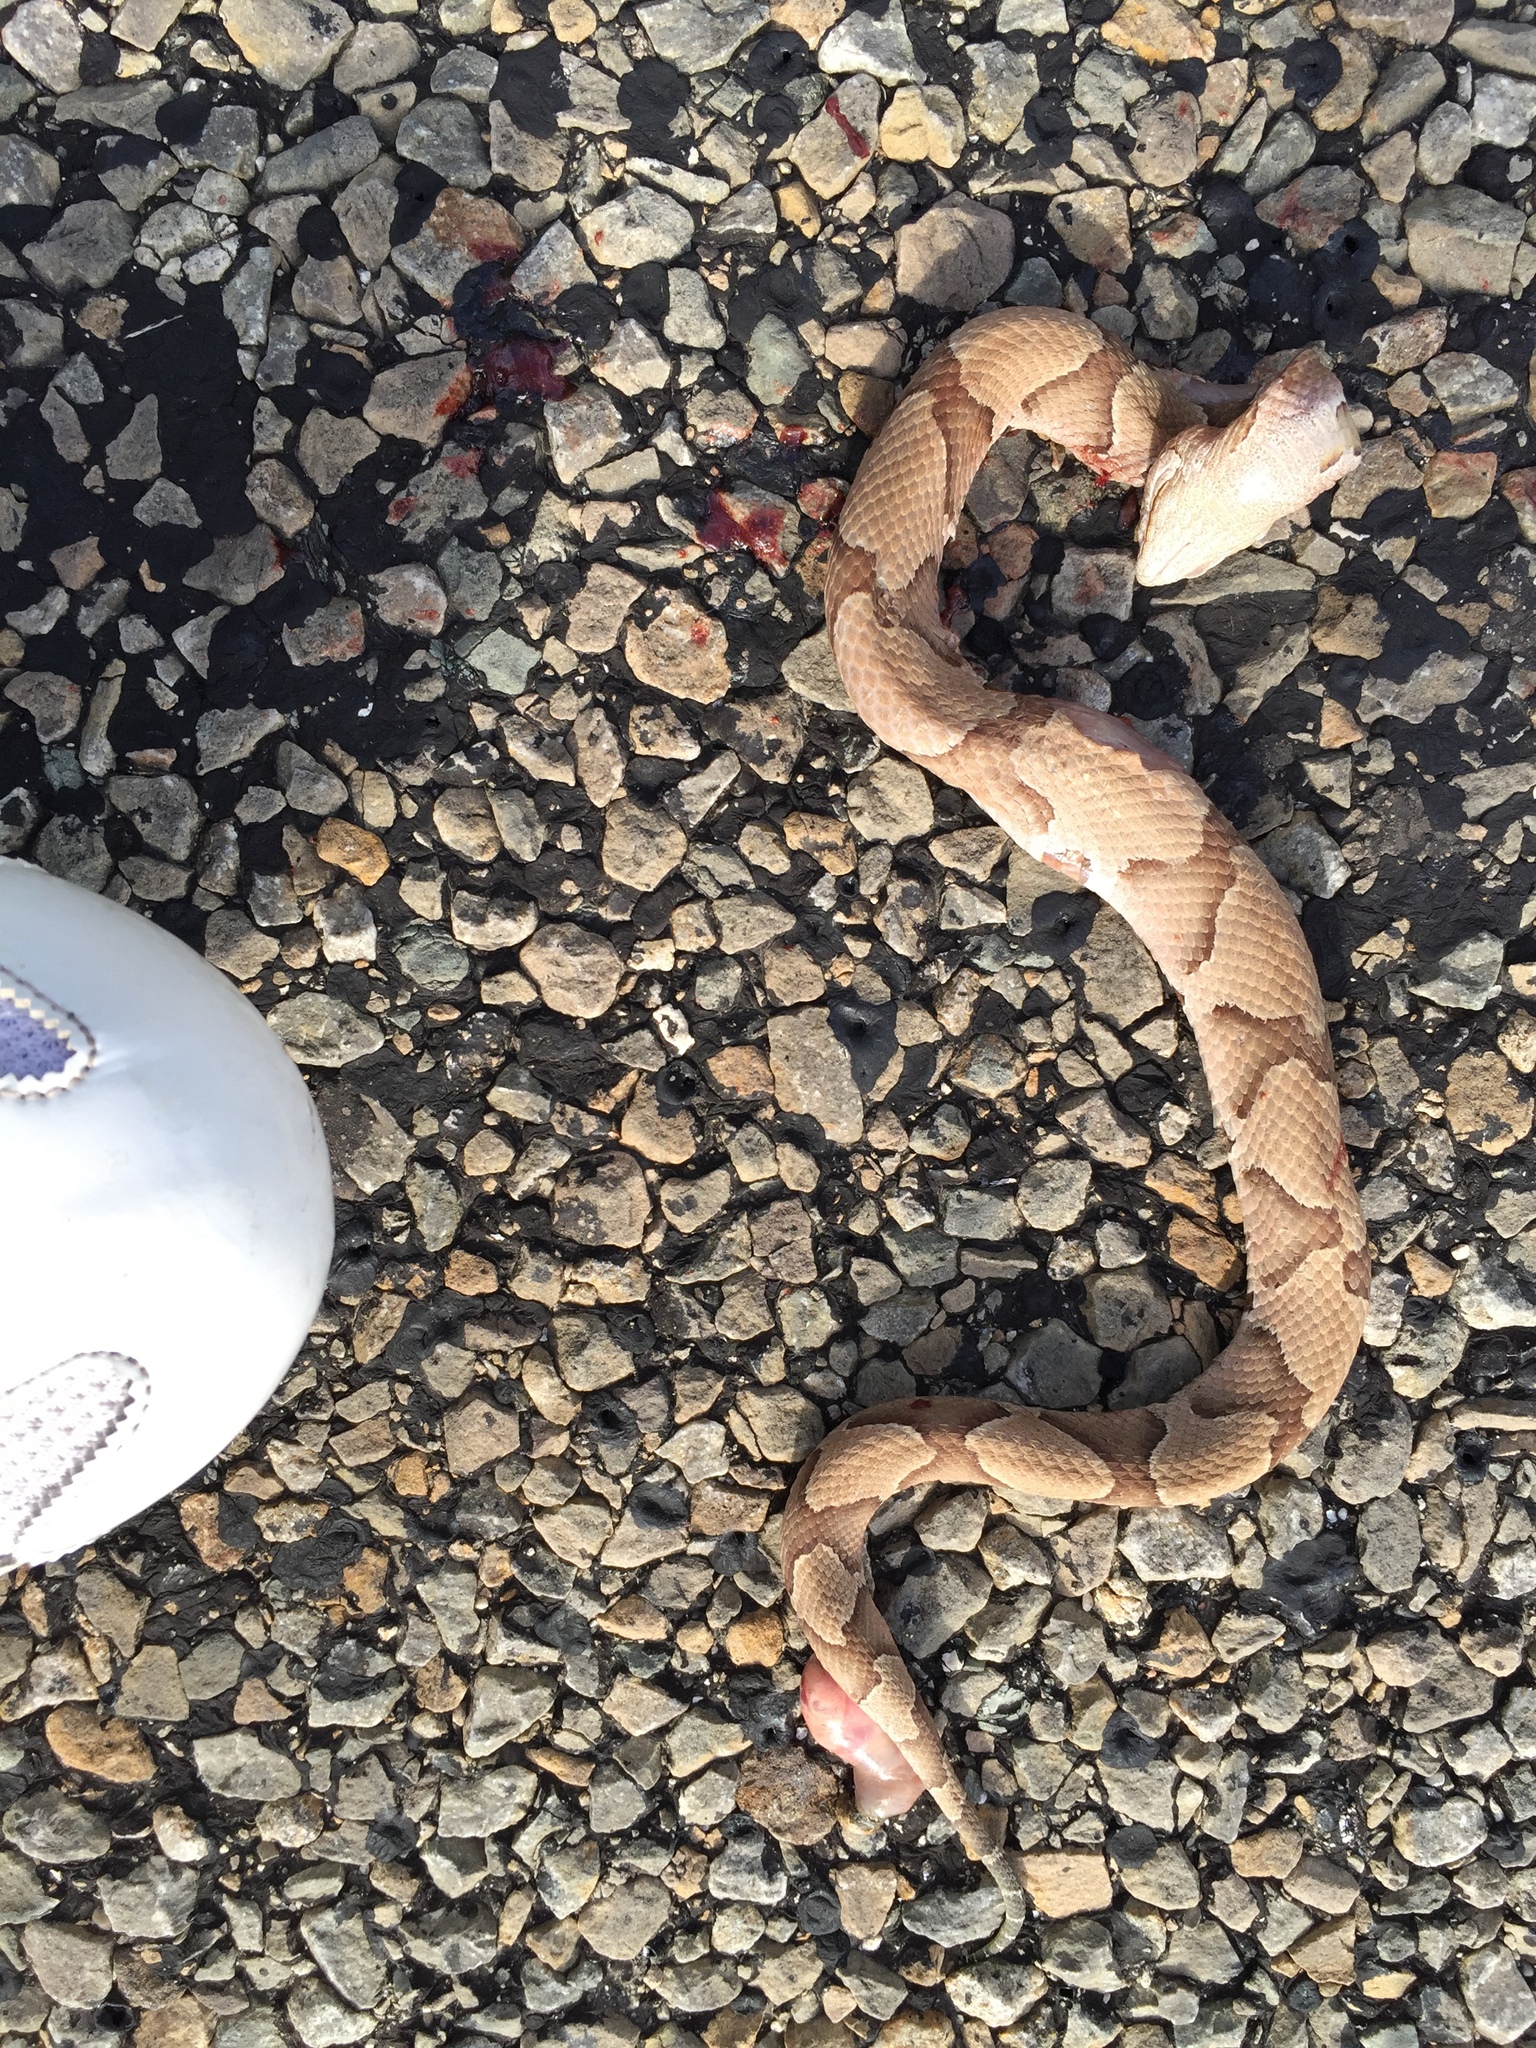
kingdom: Animalia
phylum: Chordata
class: Squamata
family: Viperidae
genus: Agkistrodon
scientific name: Agkistrodon contortrix
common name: Northern copperhead
